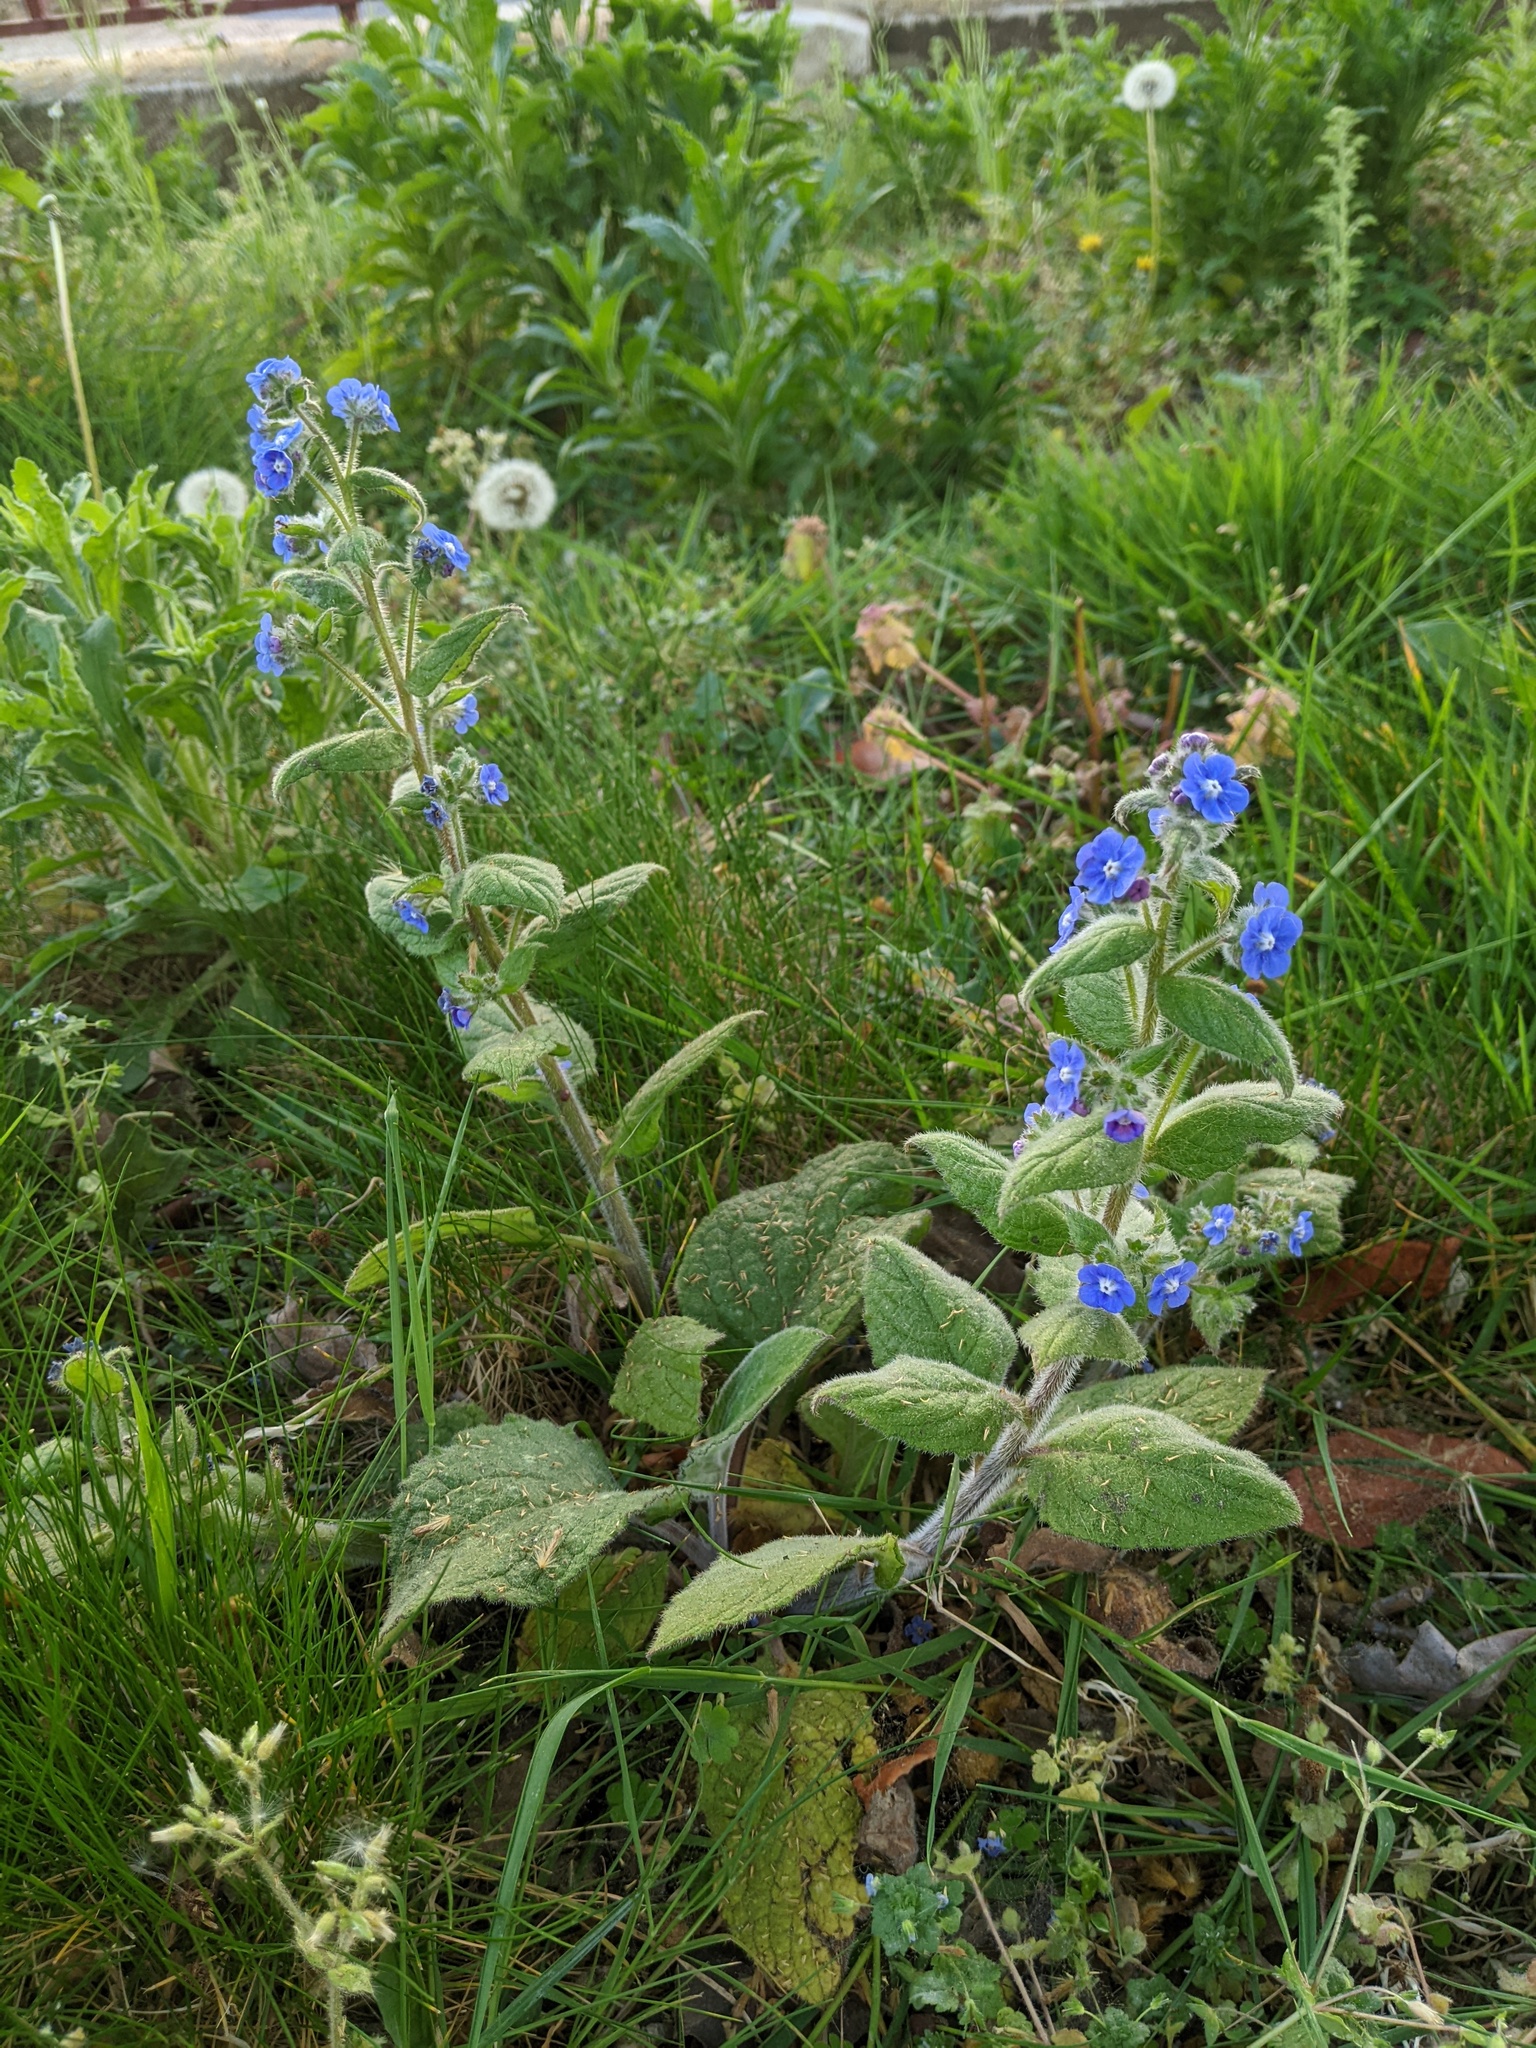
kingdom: Plantae
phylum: Tracheophyta
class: Magnoliopsida
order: Boraginales
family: Boraginaceae
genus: Pentaglottis
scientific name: Pentaglottis sempervirens
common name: Green alkanet
